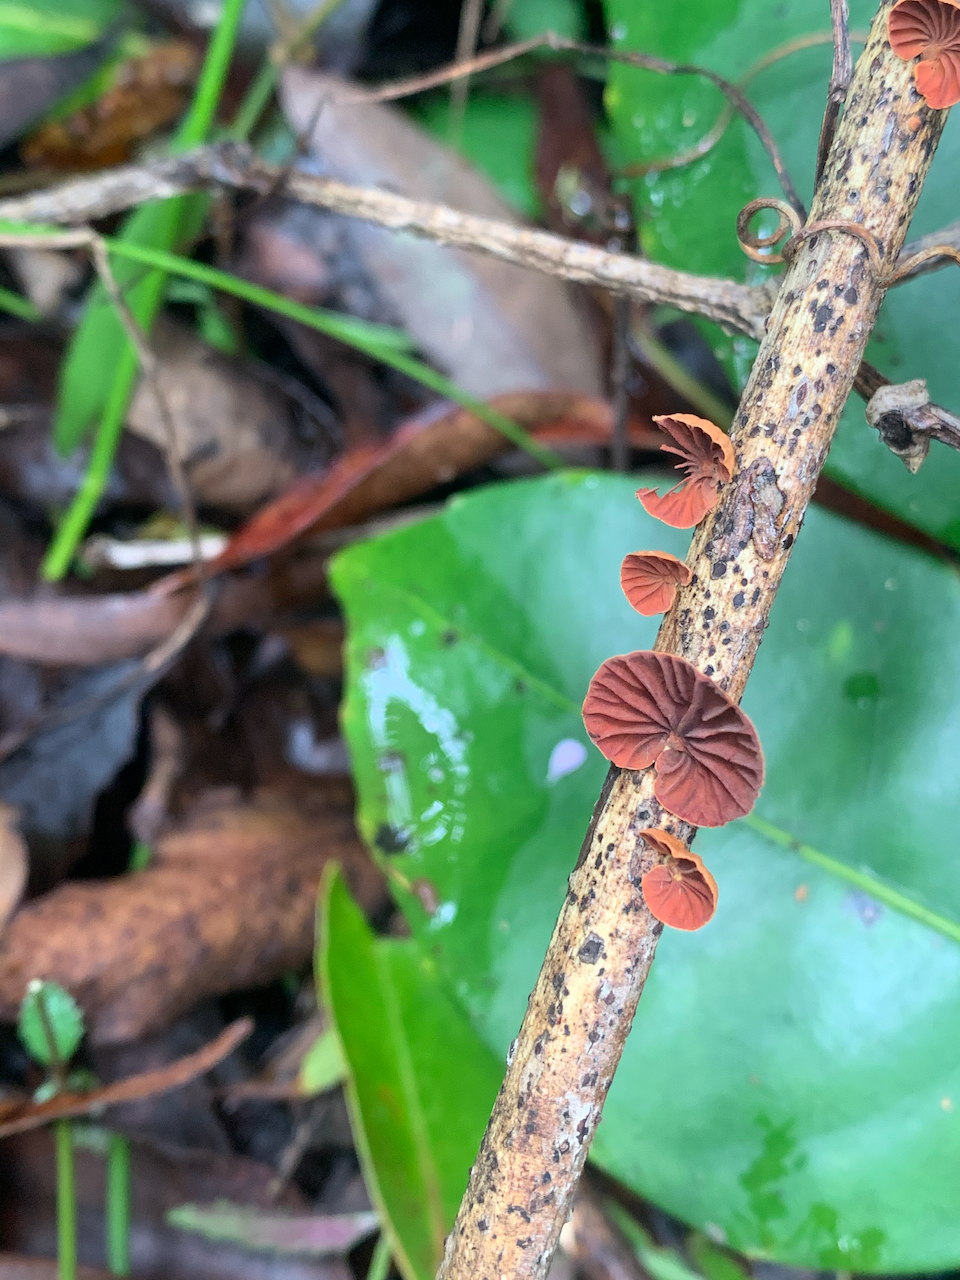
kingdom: Fungi
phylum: Basidiomycota
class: Agaricomycetes
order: Agaricales
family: Omphalotaceae
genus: Anthracophyllum
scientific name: Anthracophyllum archeri
